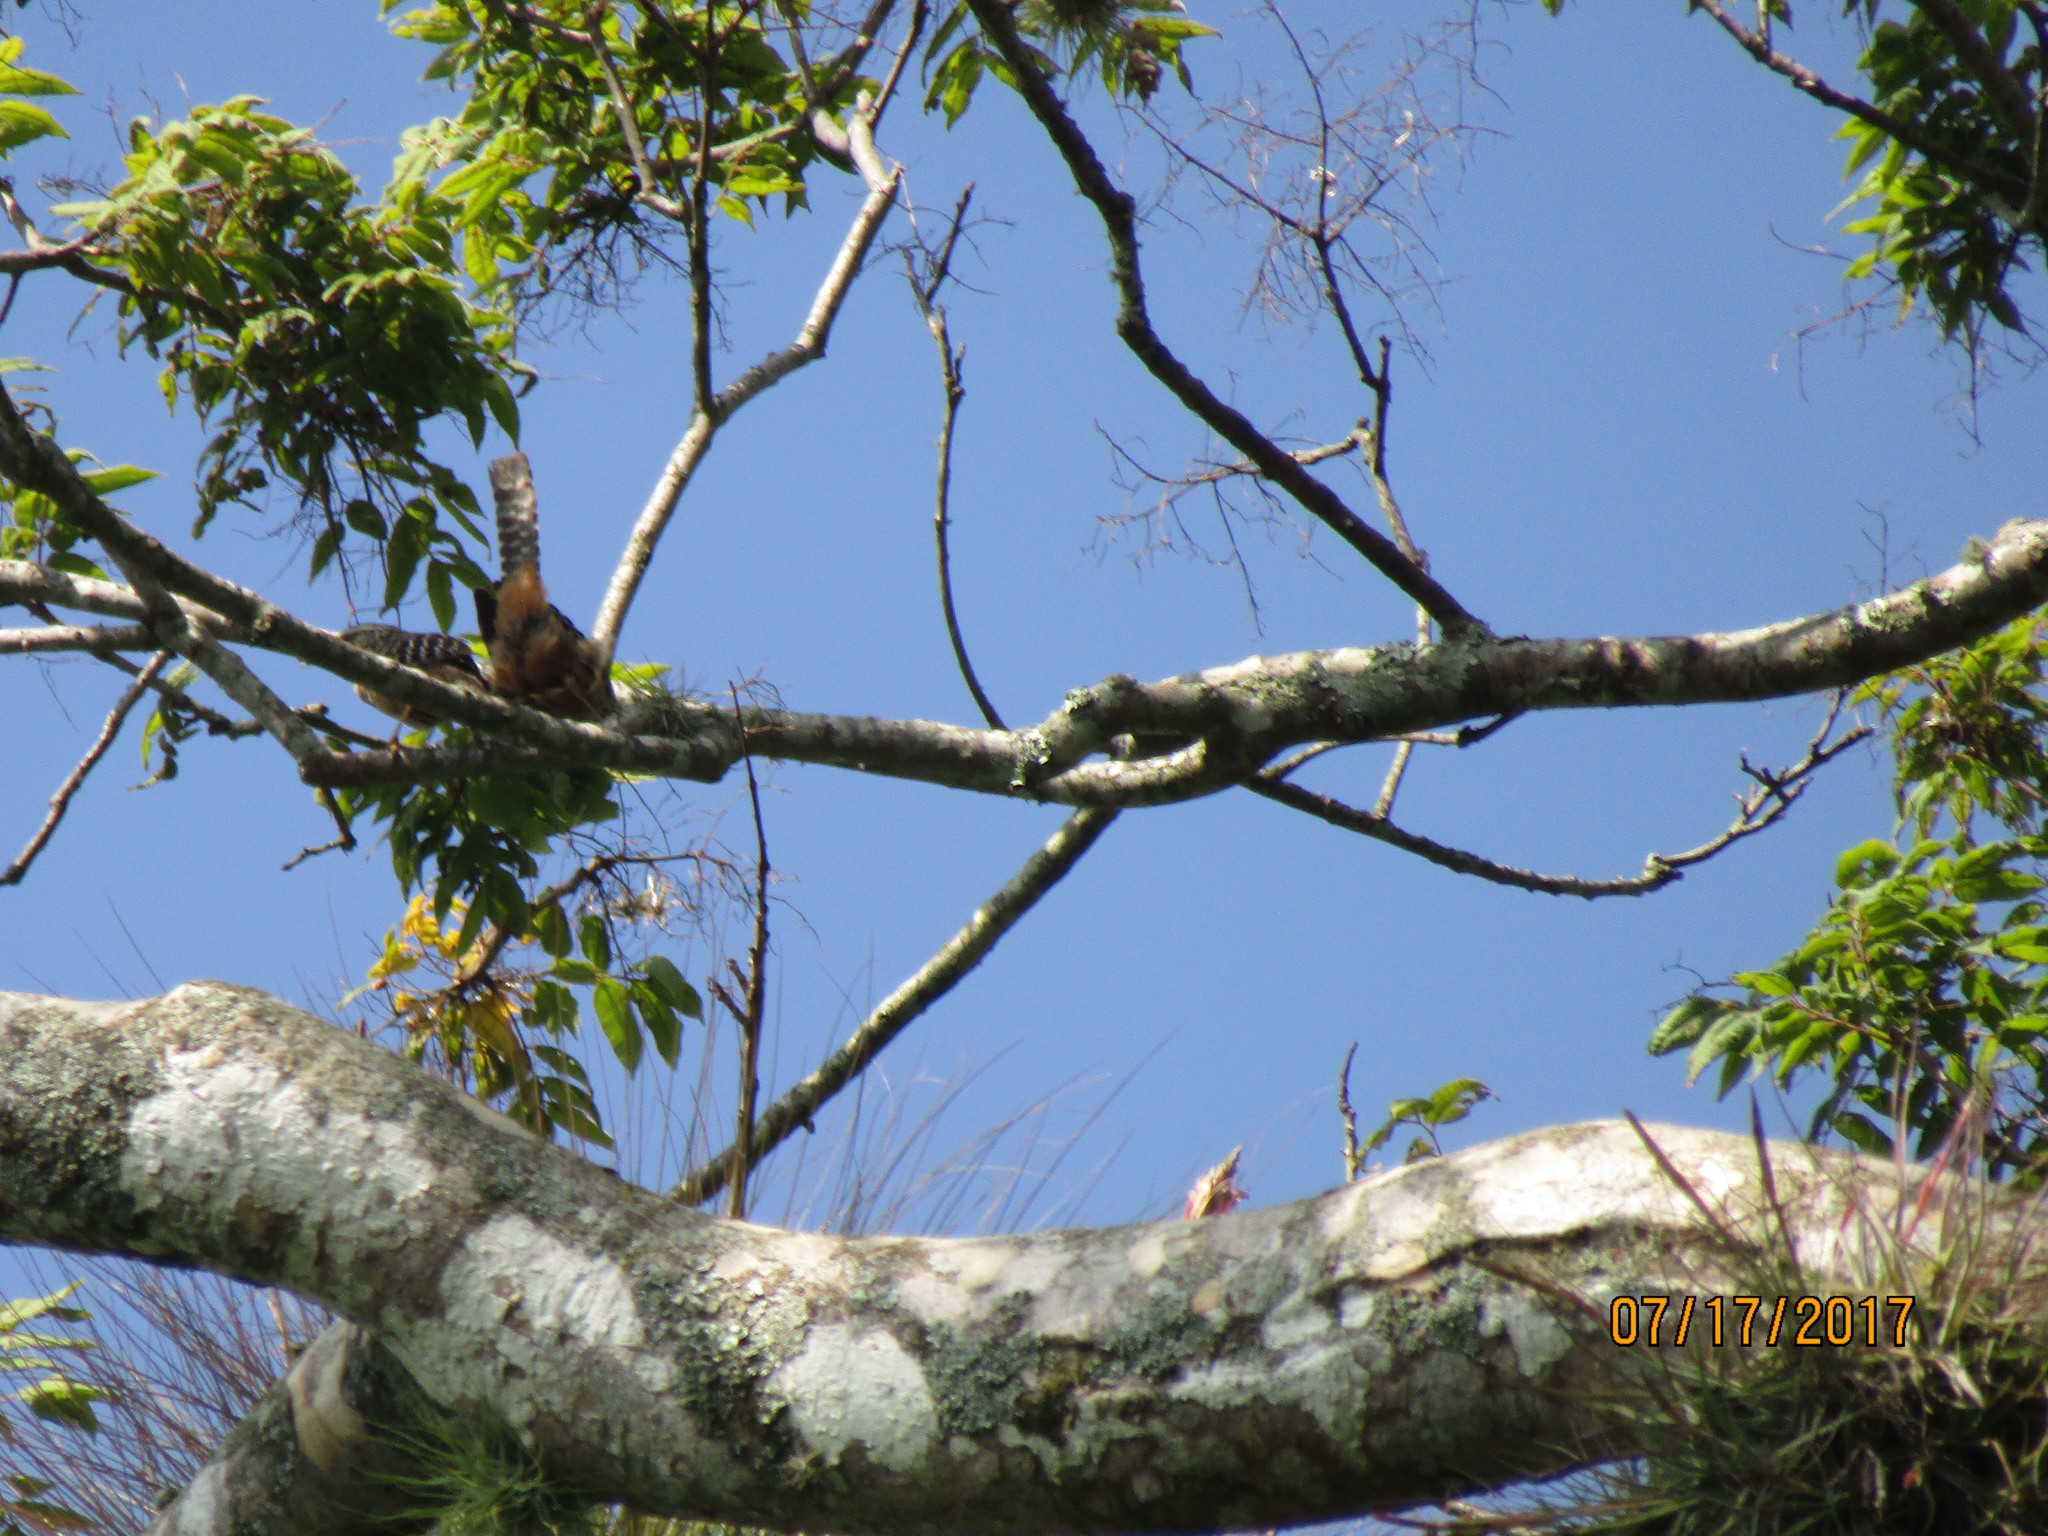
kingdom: Animalia
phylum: Chordata
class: Aves
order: Passeriformes
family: Troglodytidae
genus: Campylorhynchus
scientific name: Campylorhynchus zonatus
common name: Band-backed wren
